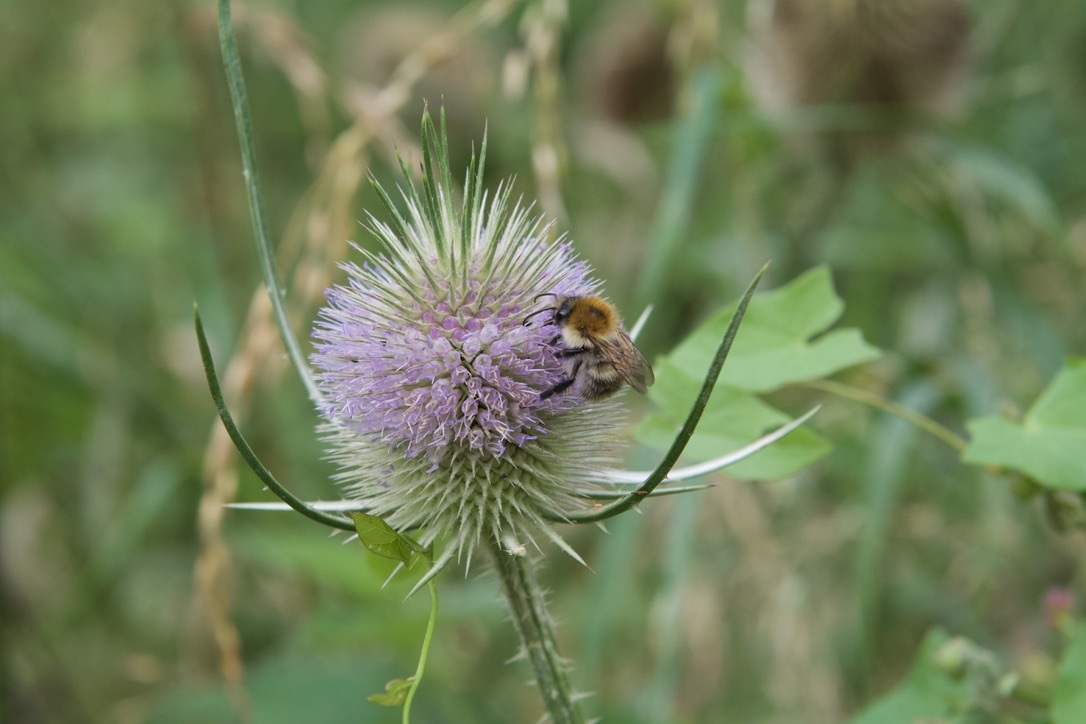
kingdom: Animalia
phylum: Arthropoda
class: Insecta
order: Hymenoptera
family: Apidae
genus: Bombus
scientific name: Bombus pascuorum
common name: Common carder bee
